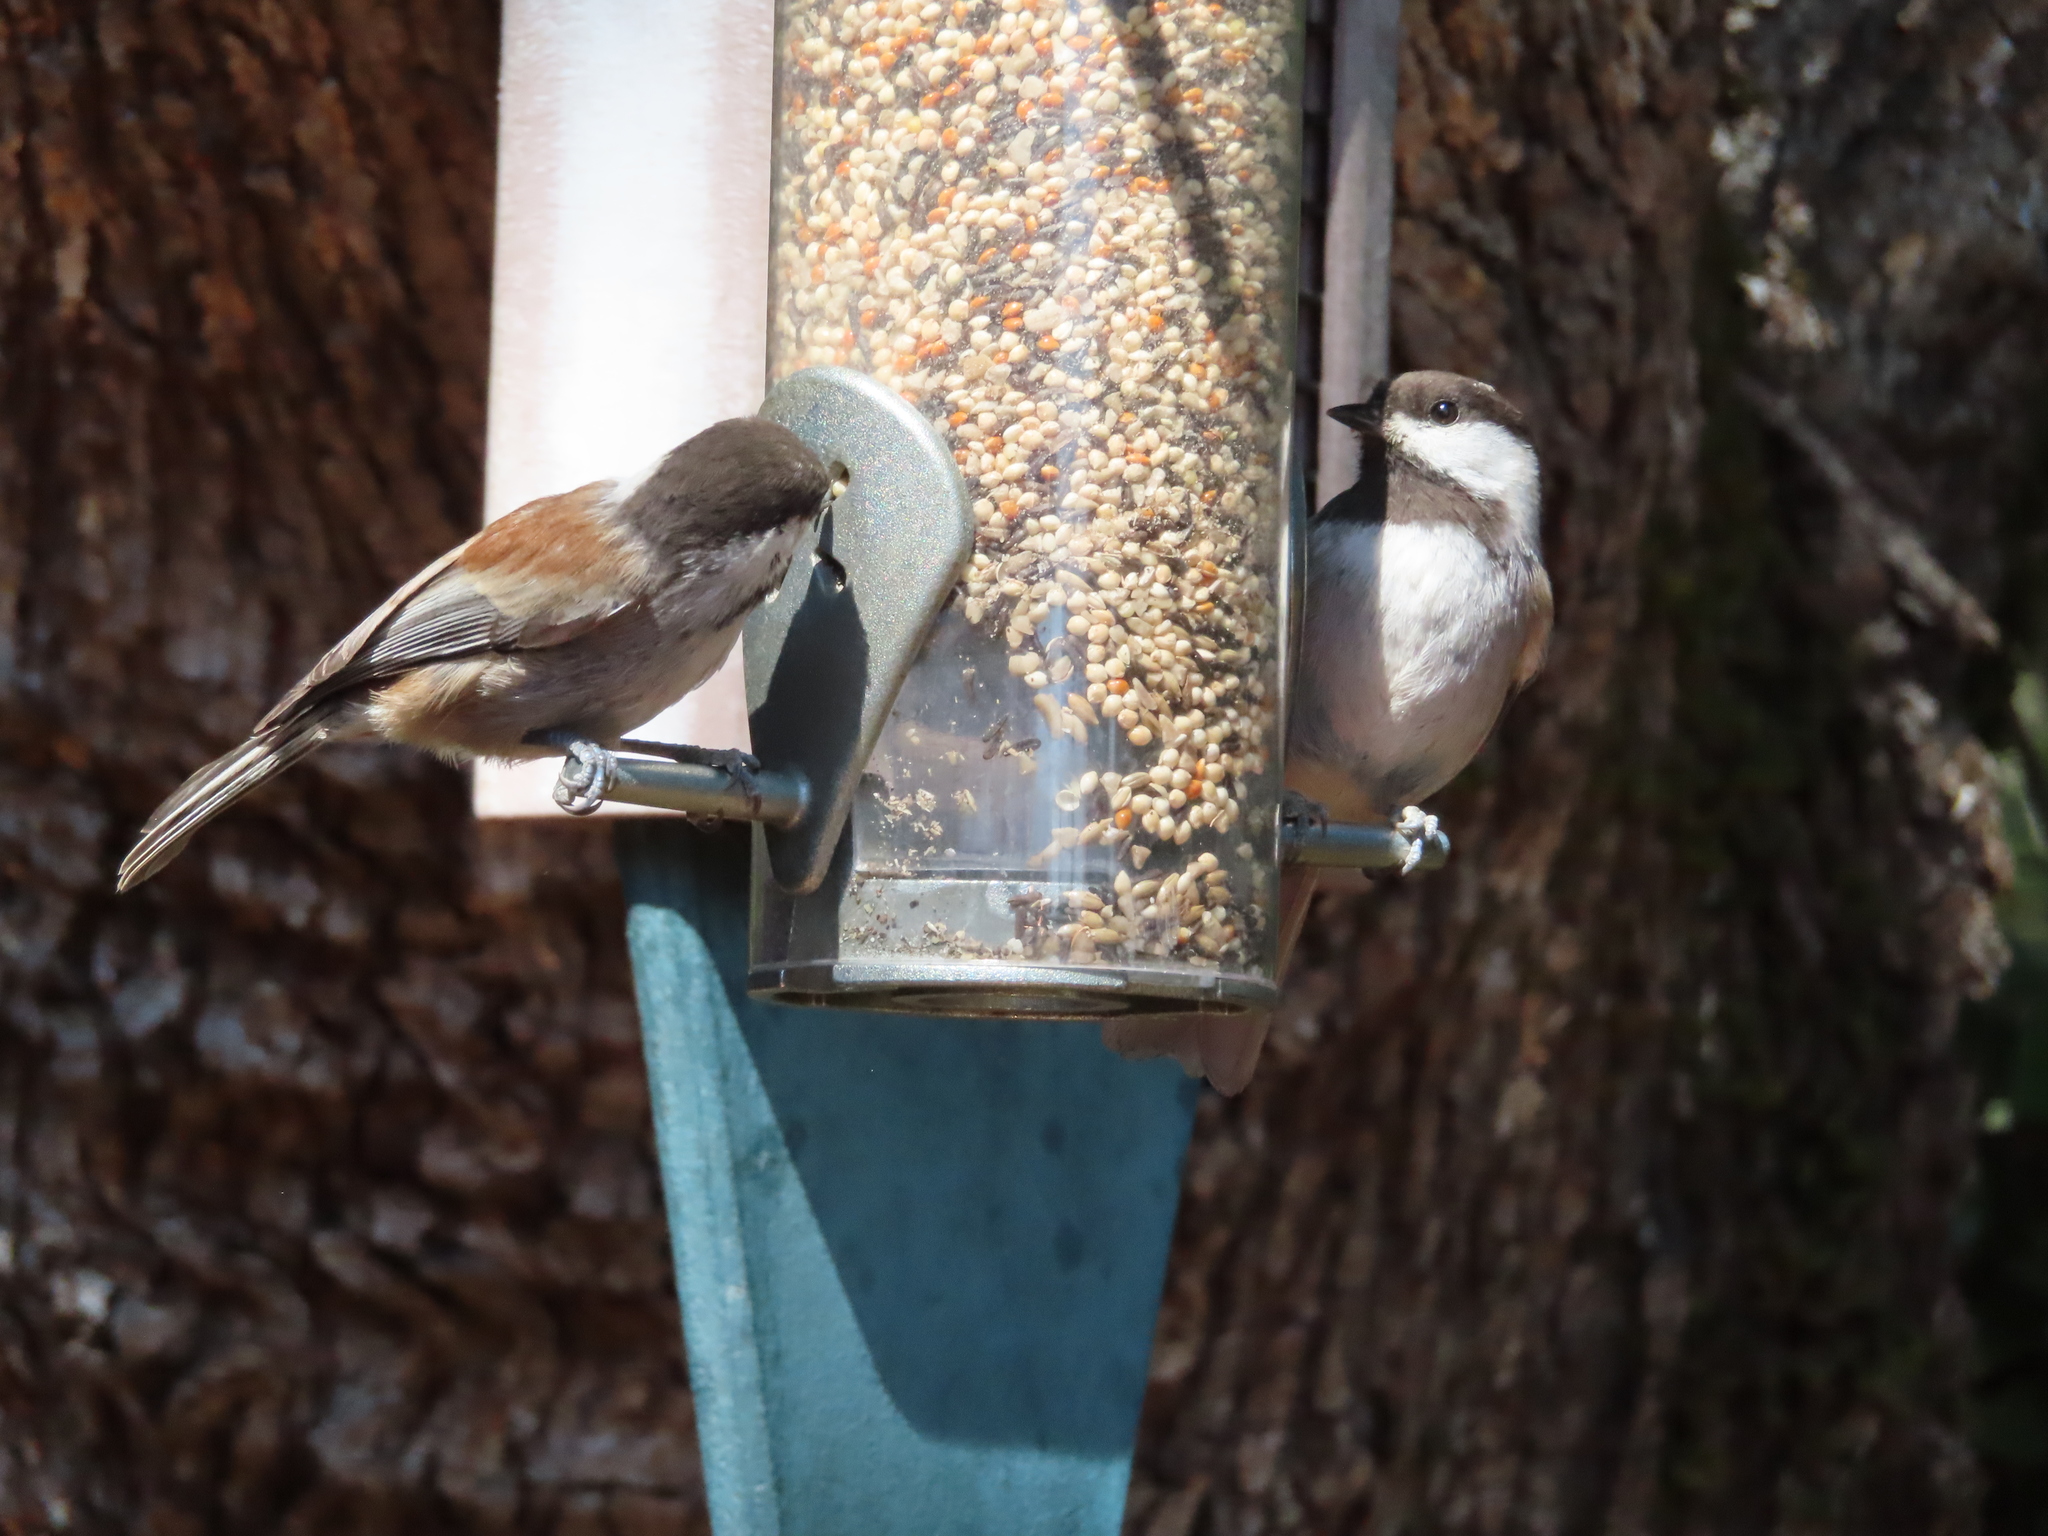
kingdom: Animalia
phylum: Chordata
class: Aves
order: Passeriformes
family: Paridae
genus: Poecile
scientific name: Poecile rufescens
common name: Chestnut-backed chickadee
